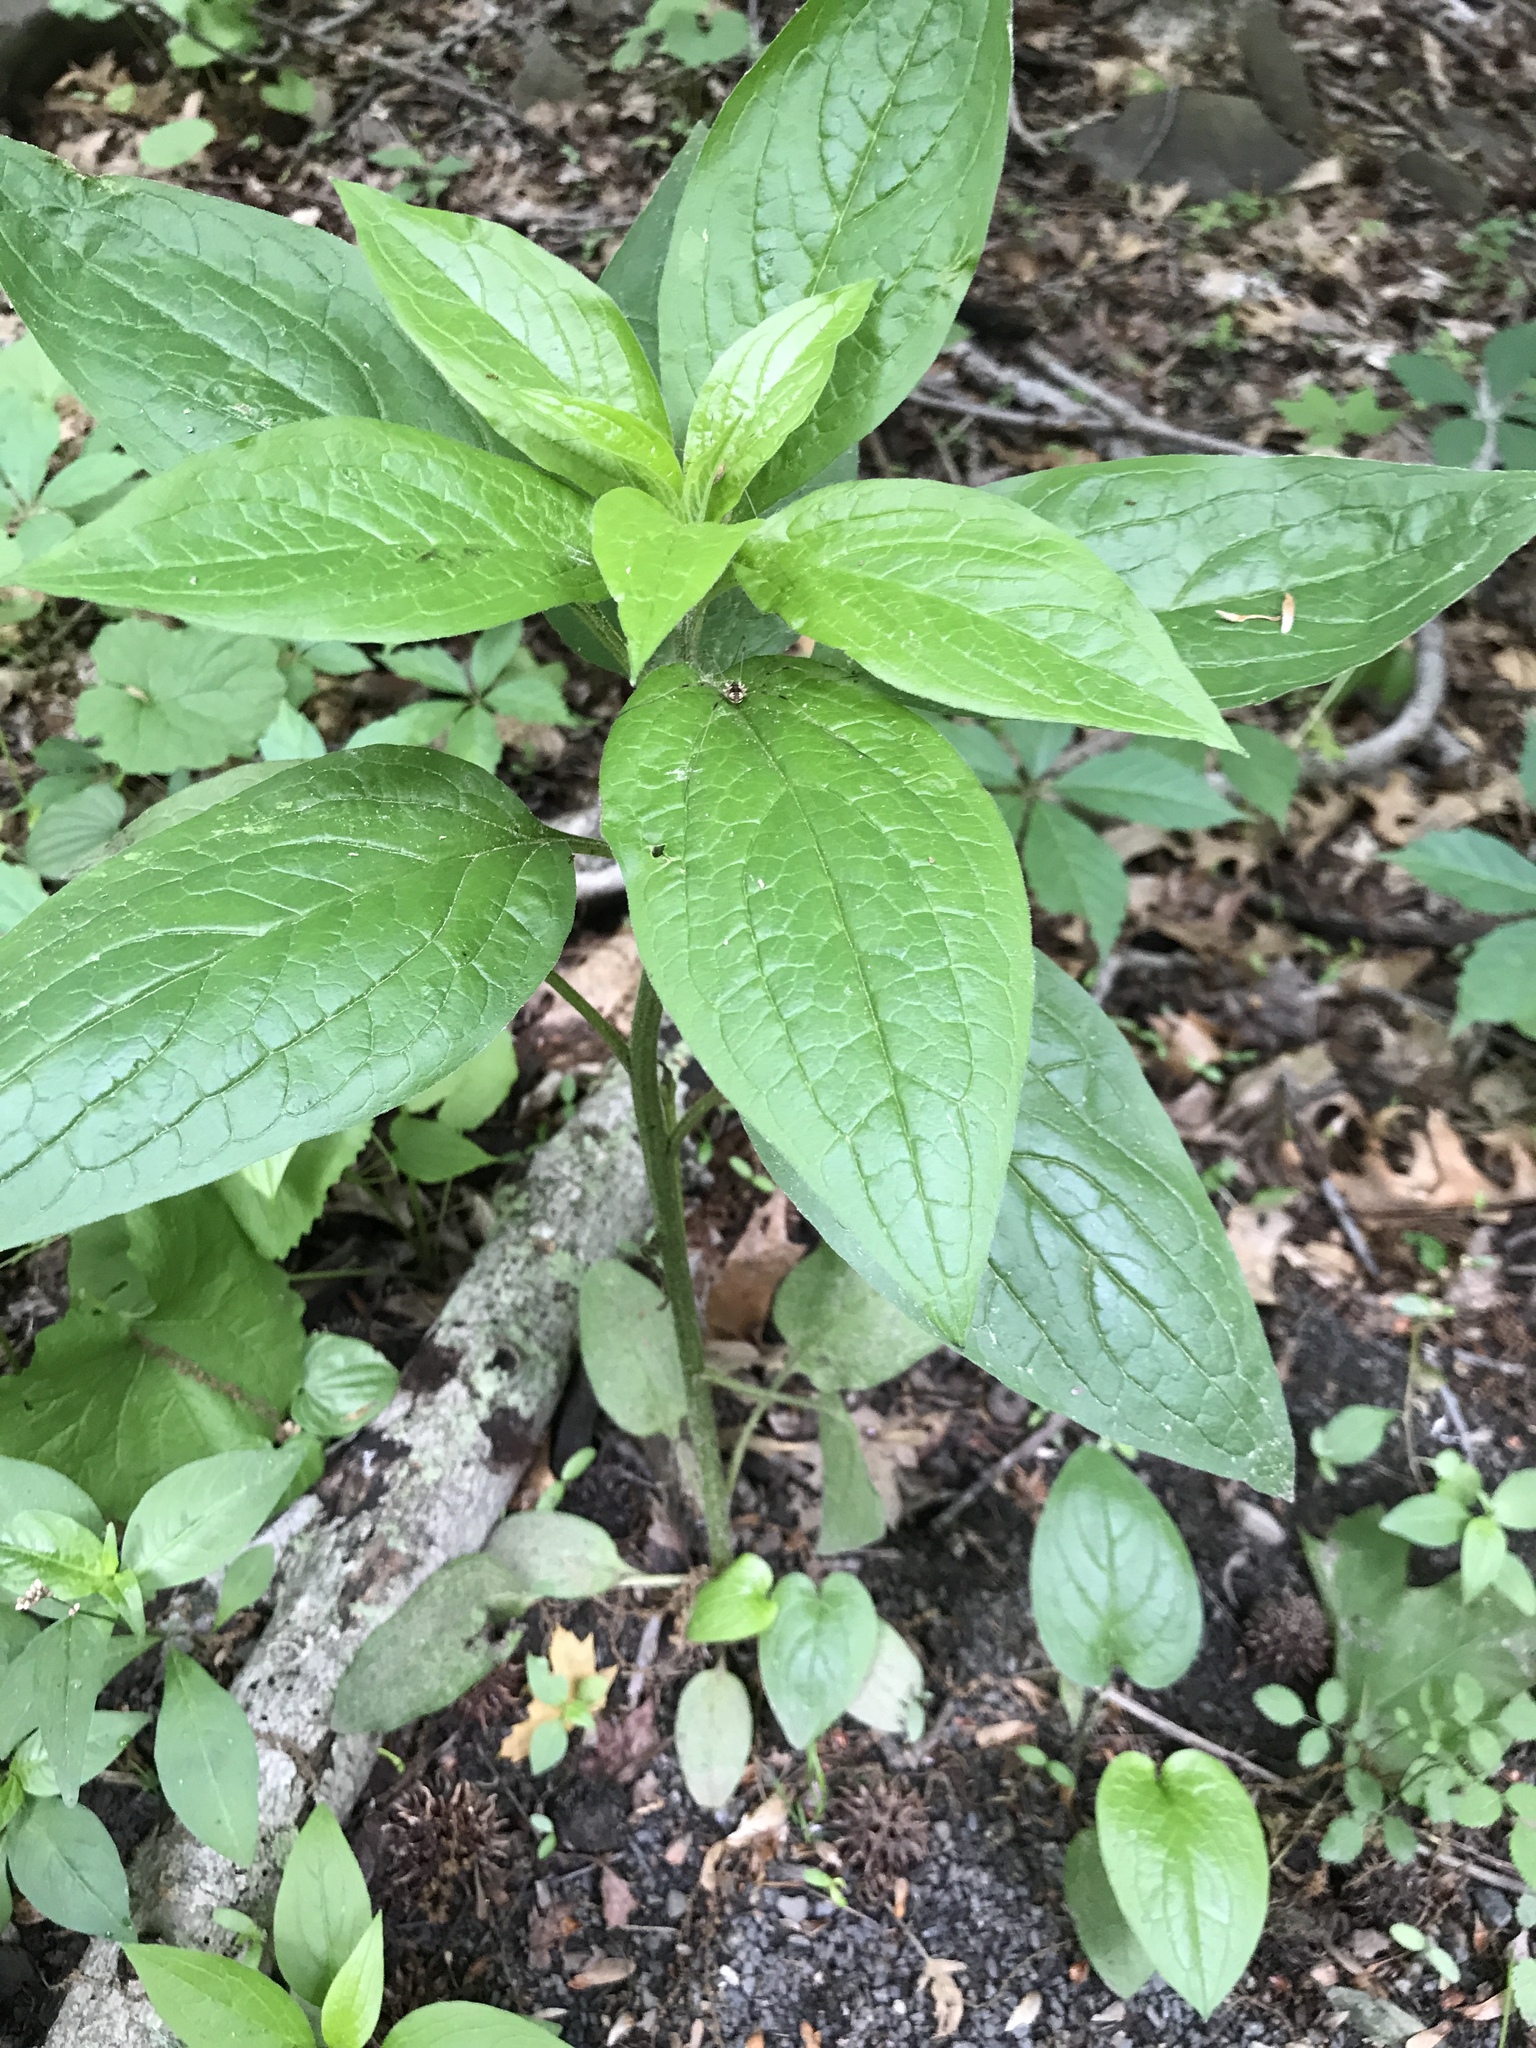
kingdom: Plantae
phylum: Tracheophyta
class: Magnoliopsida
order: Boraginales
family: Boraginaceae
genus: Hackelia
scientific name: Hackelia virginiana
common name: Beggar's-lice
